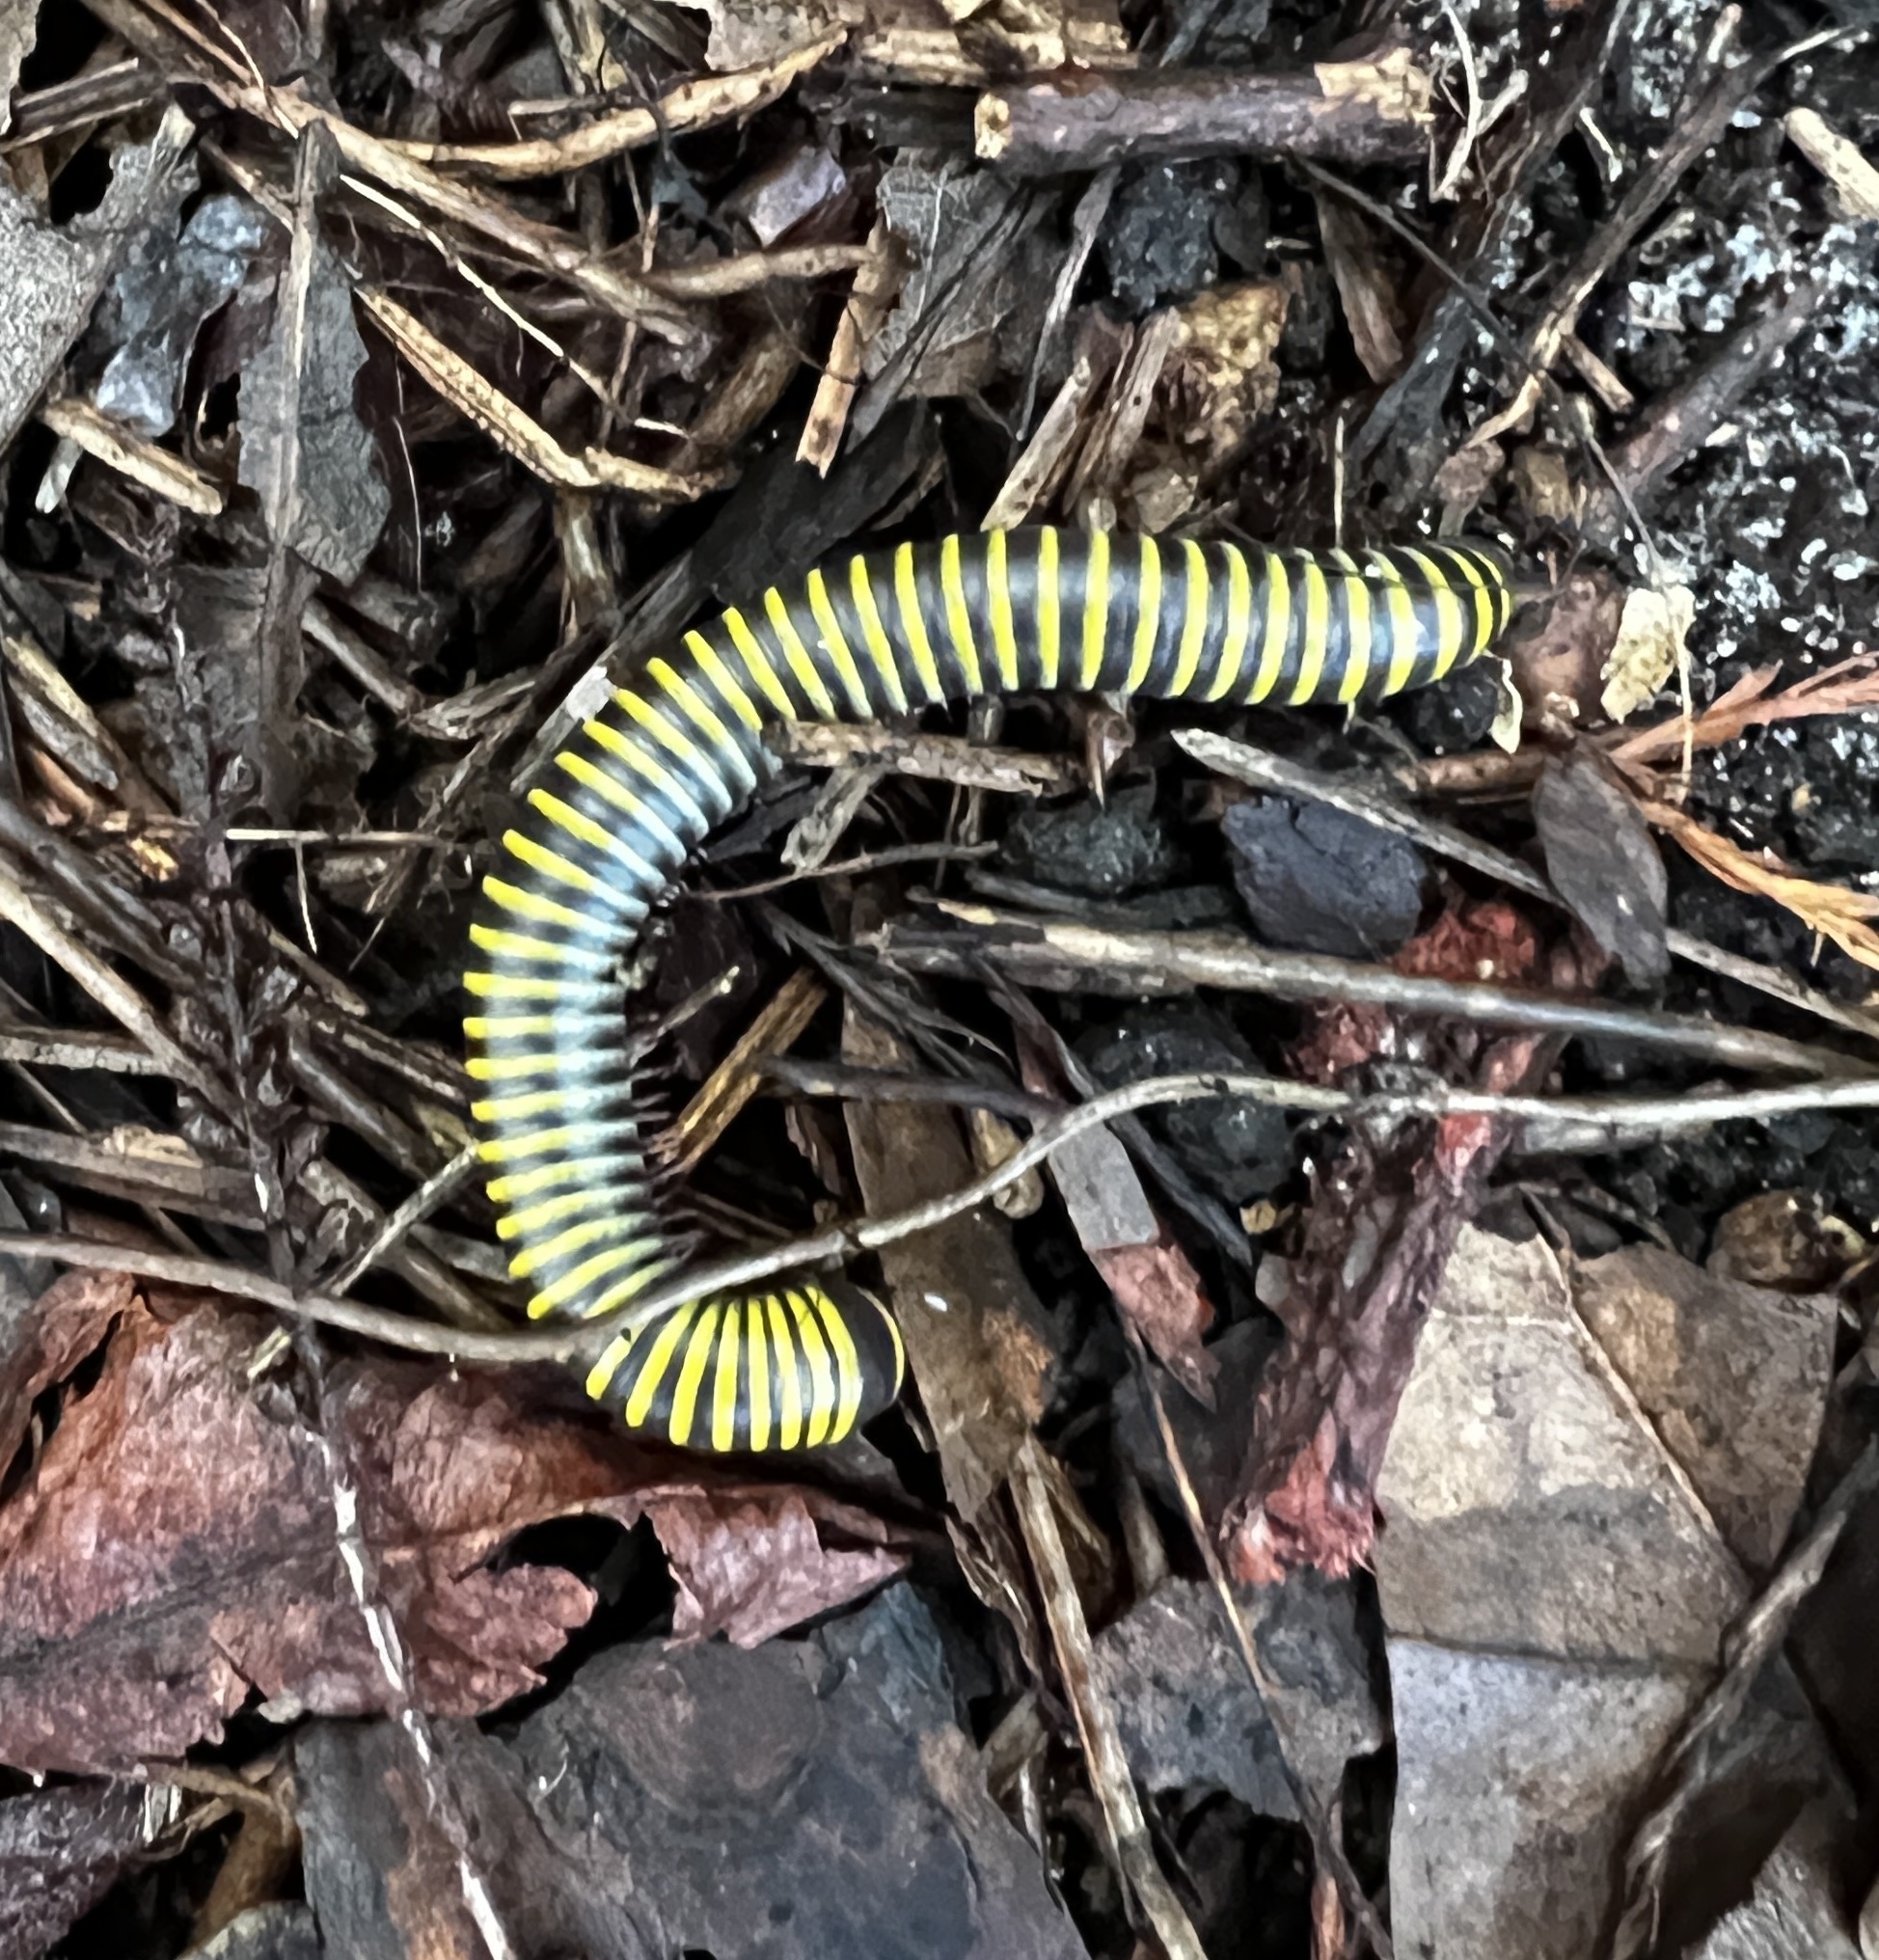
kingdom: Animalia
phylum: Arthropoda
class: Diplopoda
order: Spirobolida
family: Rhinocricidae
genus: Anadenobolus
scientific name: Anadenobolus monilicornis
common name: Caribbean millipede
